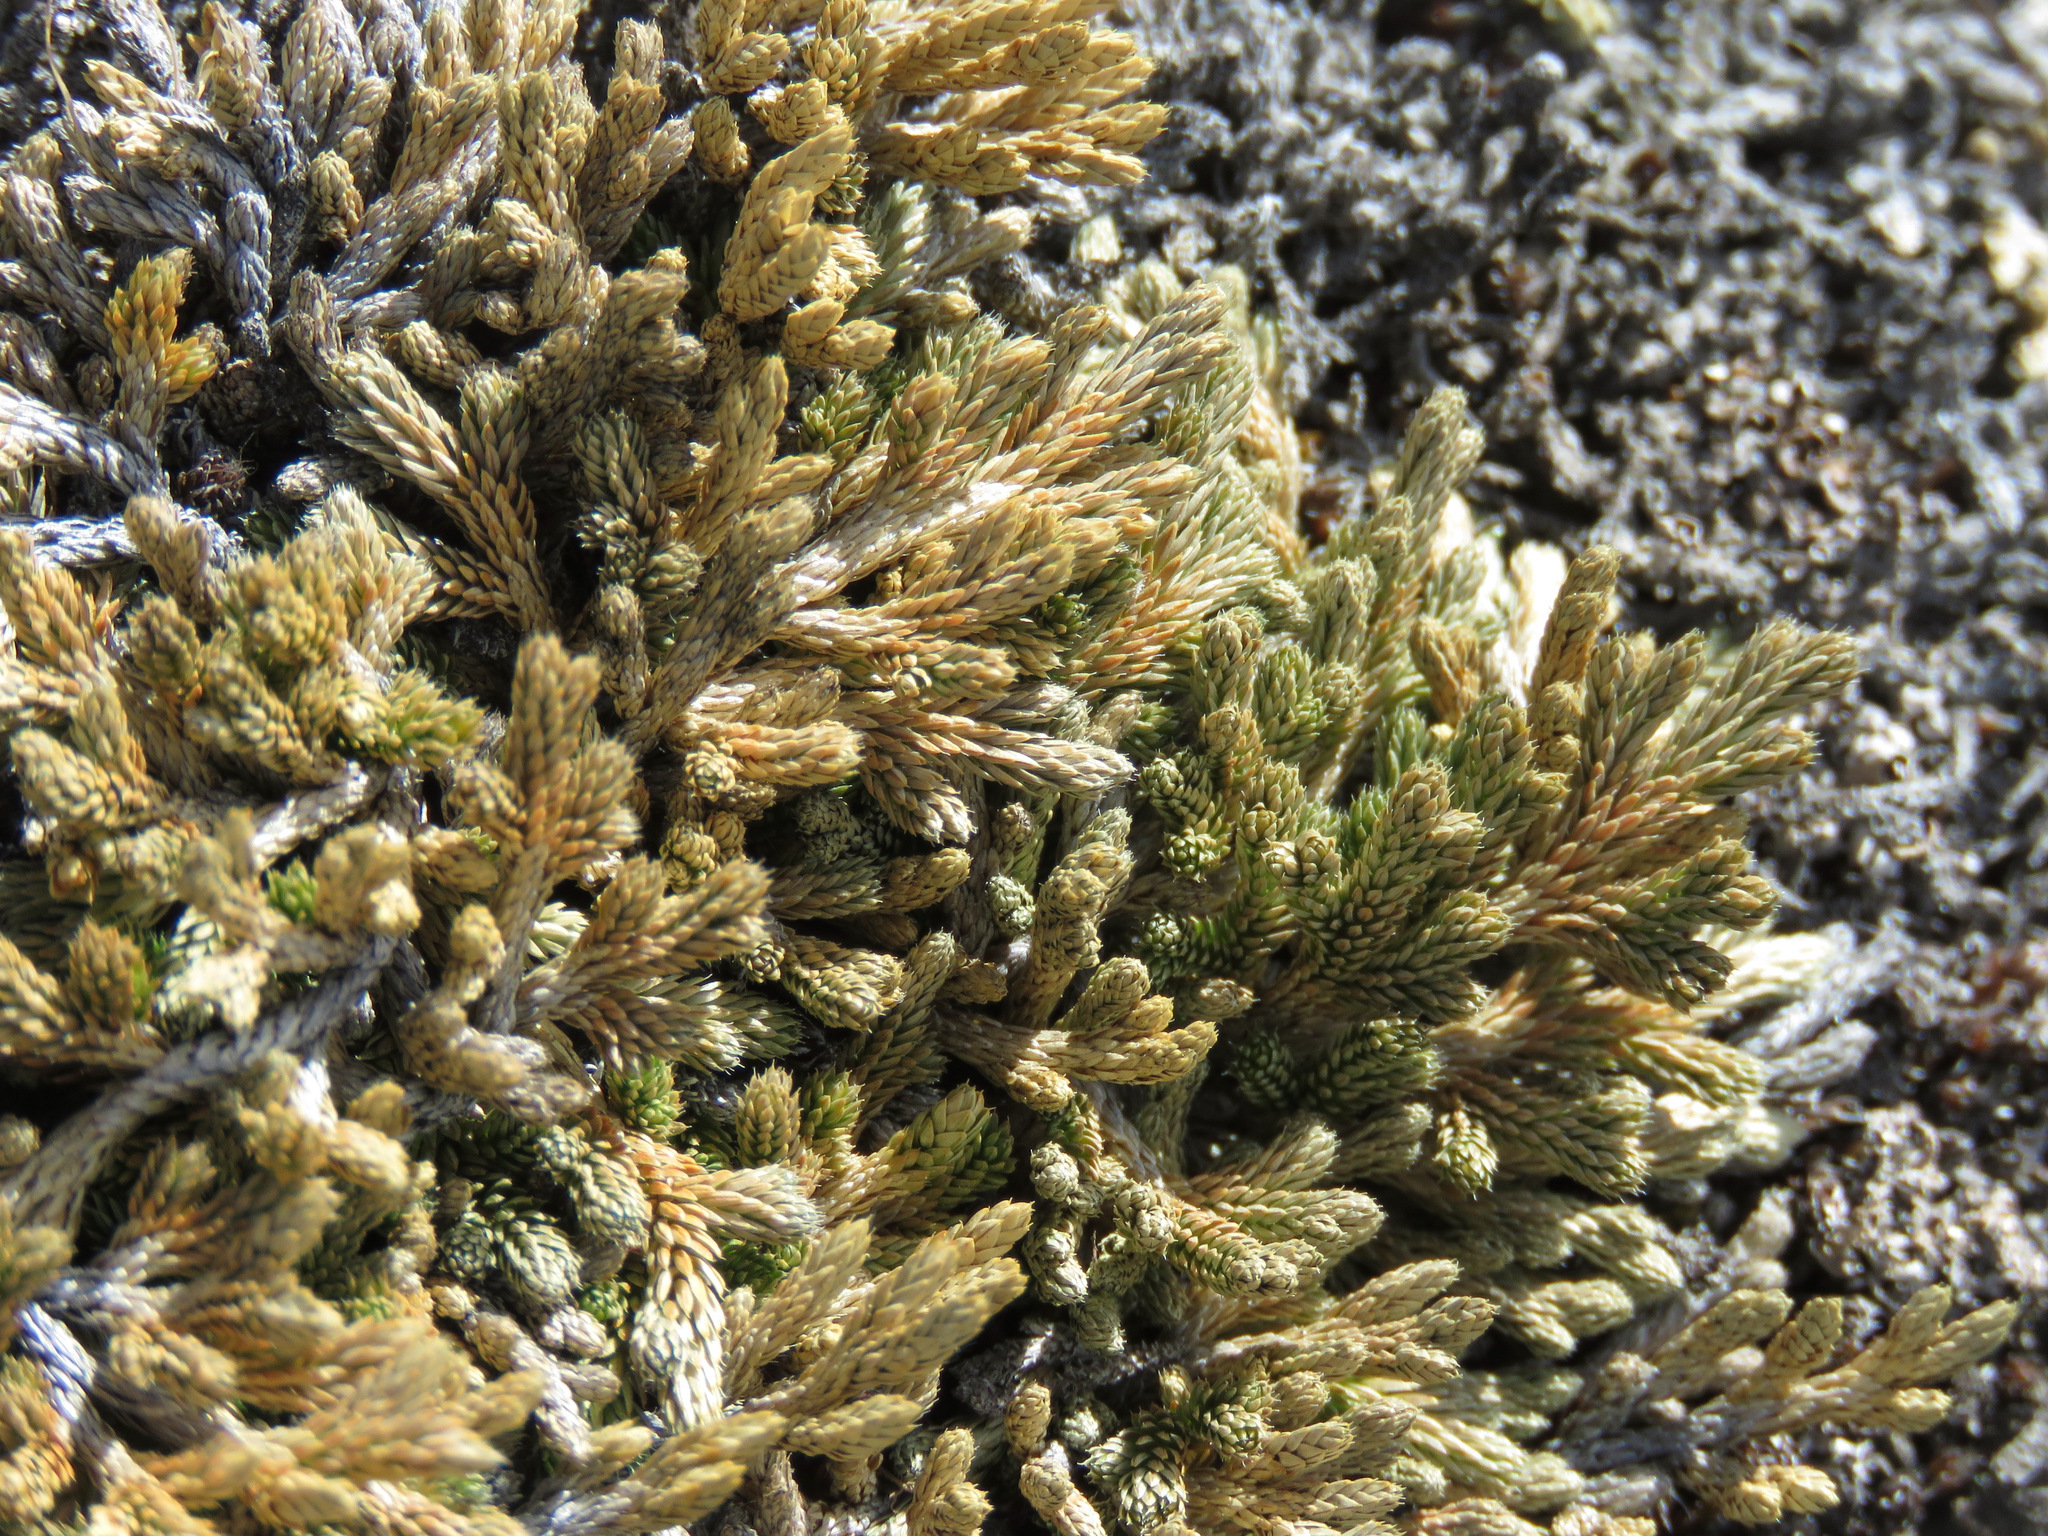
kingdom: Plantae
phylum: Tracheophyta
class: Lycopodiopsida
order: Selaginellales
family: Selaginellaceae
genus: Selaginella
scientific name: Selaginella wallacei
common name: Wallace's selaginella
